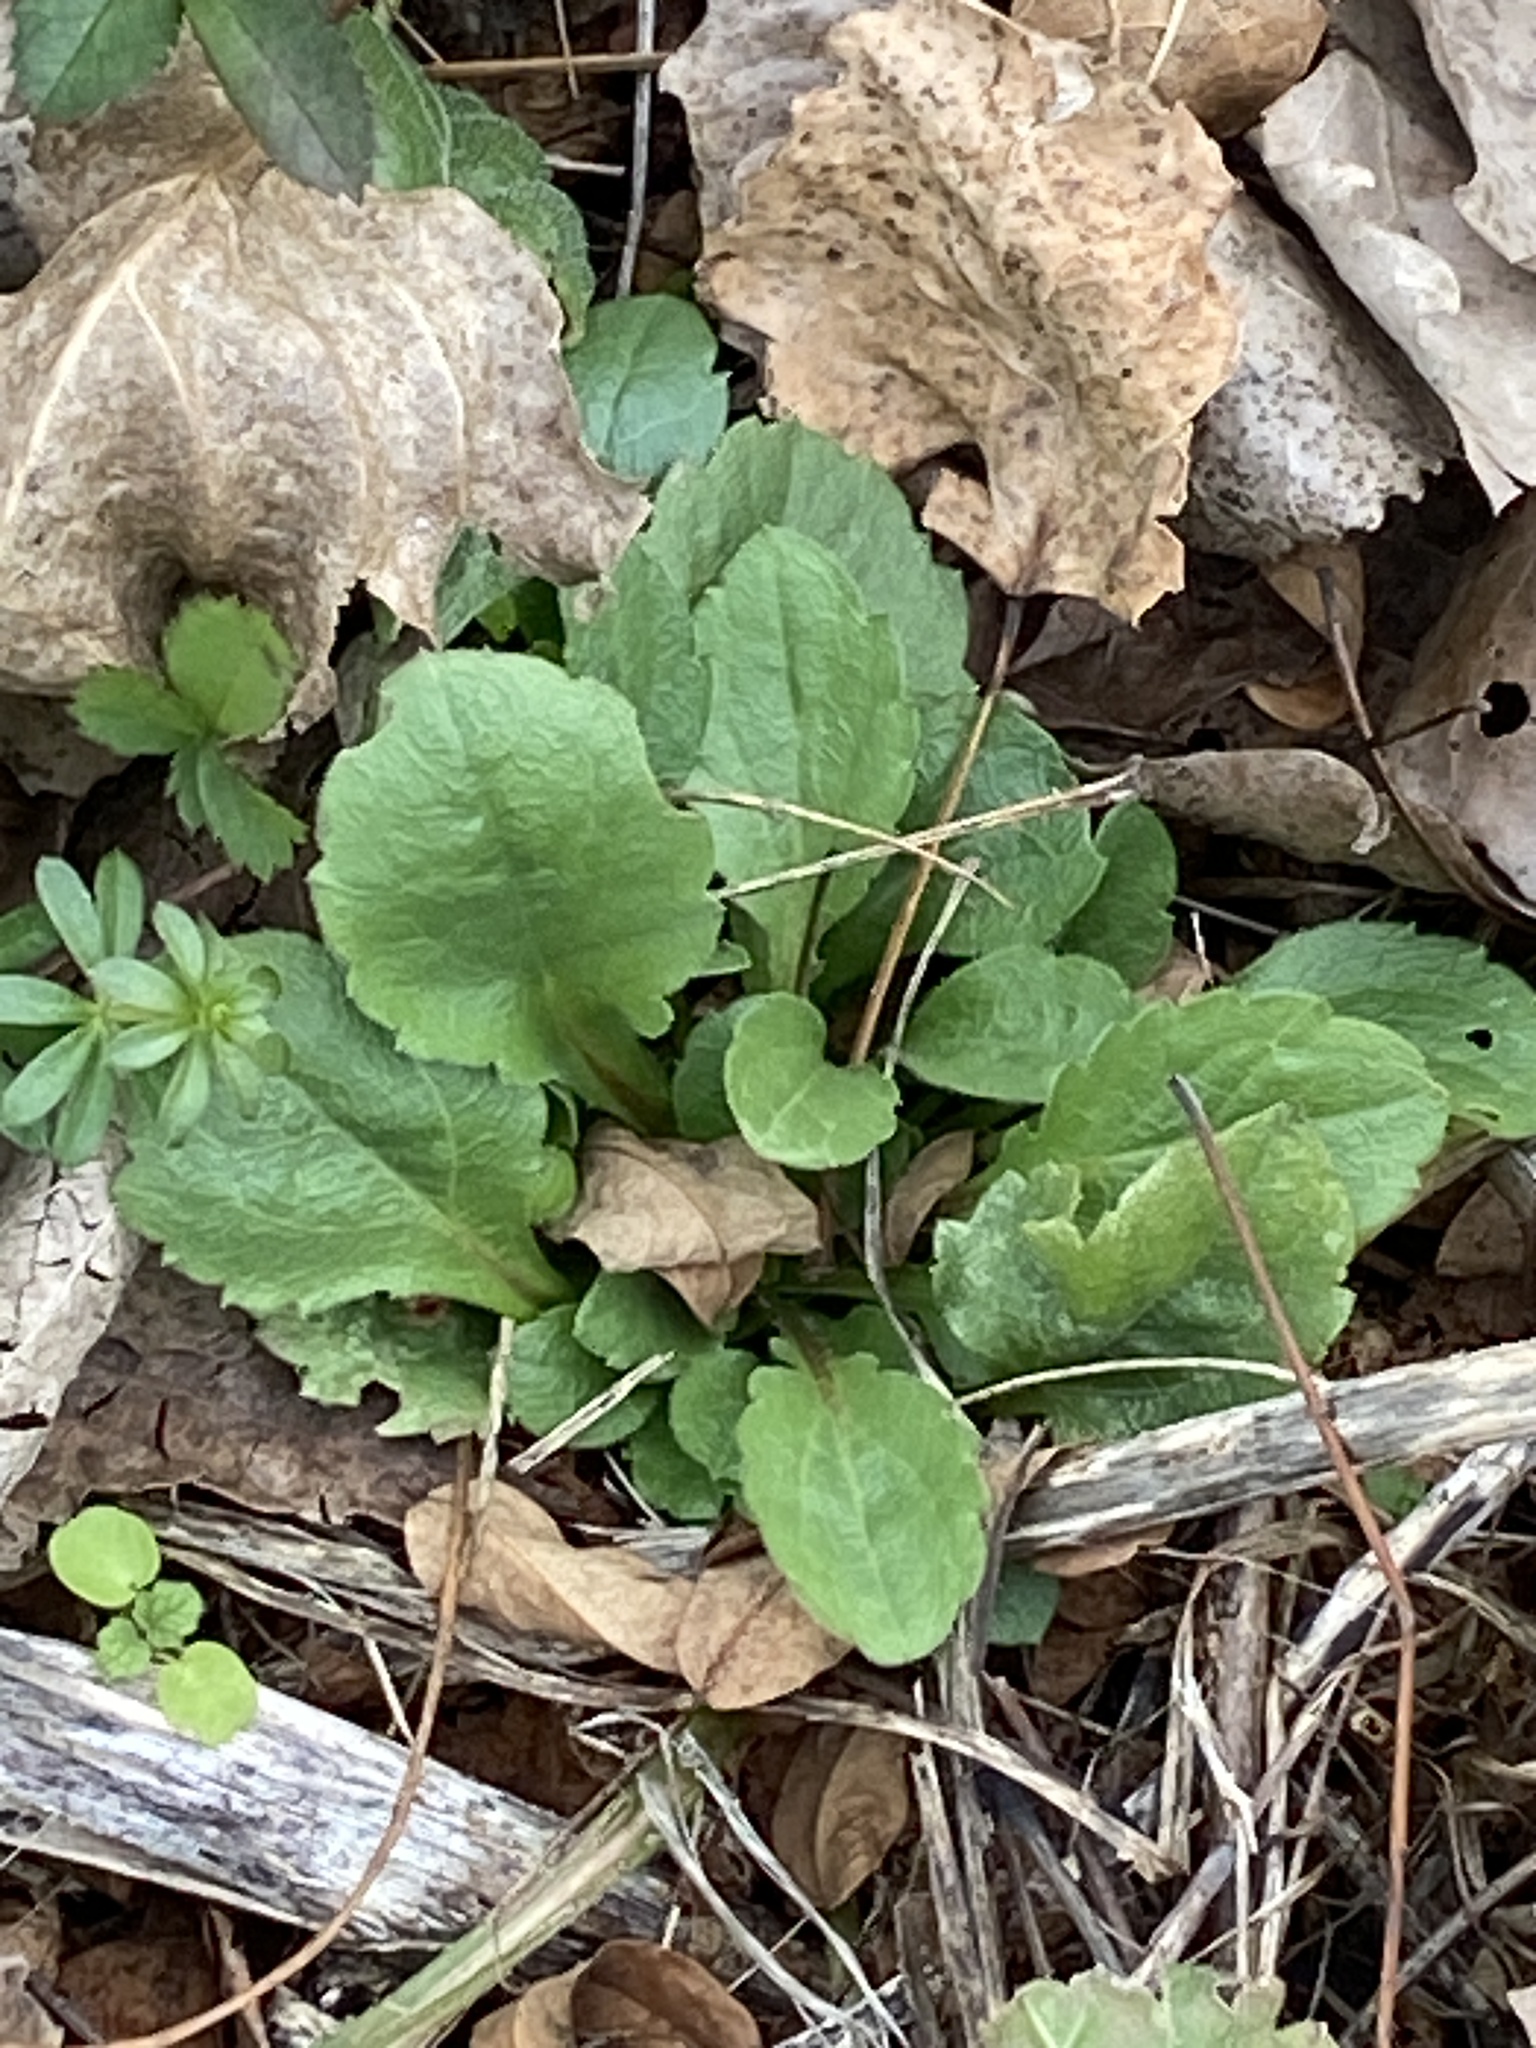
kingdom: Plantae
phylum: Tracheophyta
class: Magnoliopsida
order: Asterales
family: Asteraceae
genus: Erigeron
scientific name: Erigeron annuus
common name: Tall fleabane
